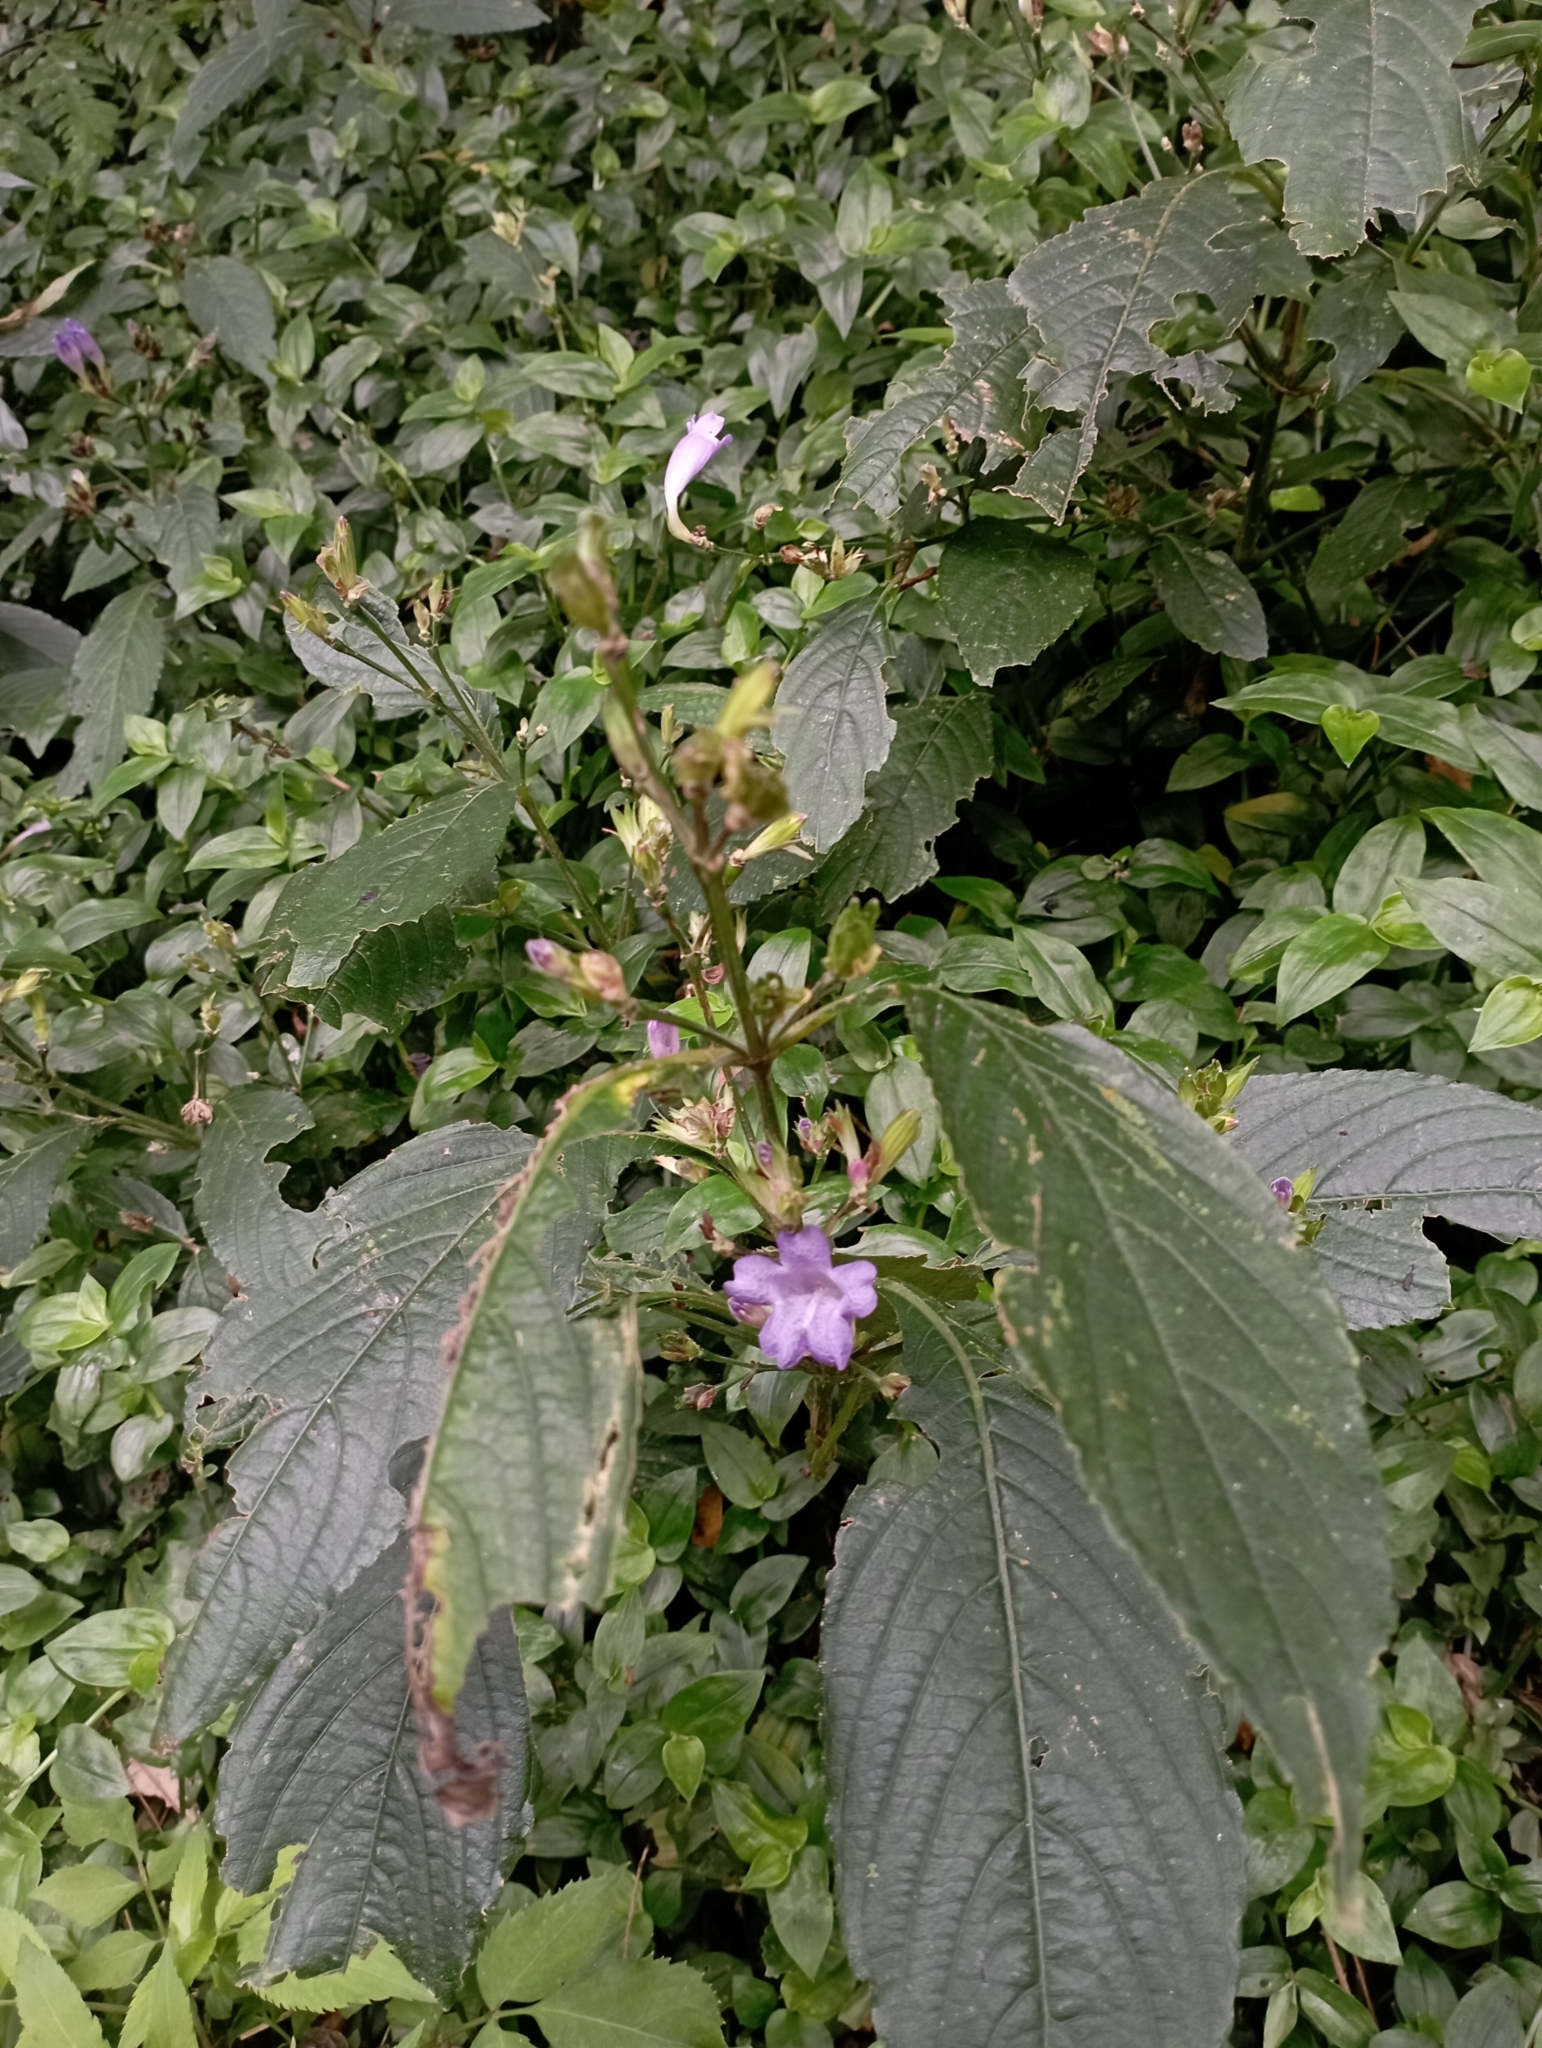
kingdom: Plantae
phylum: Tracheophyta
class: Magnoliopsida
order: Lamiales
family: Acanthaceae
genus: Strobilanthes
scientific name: Strobilanthes formosana
